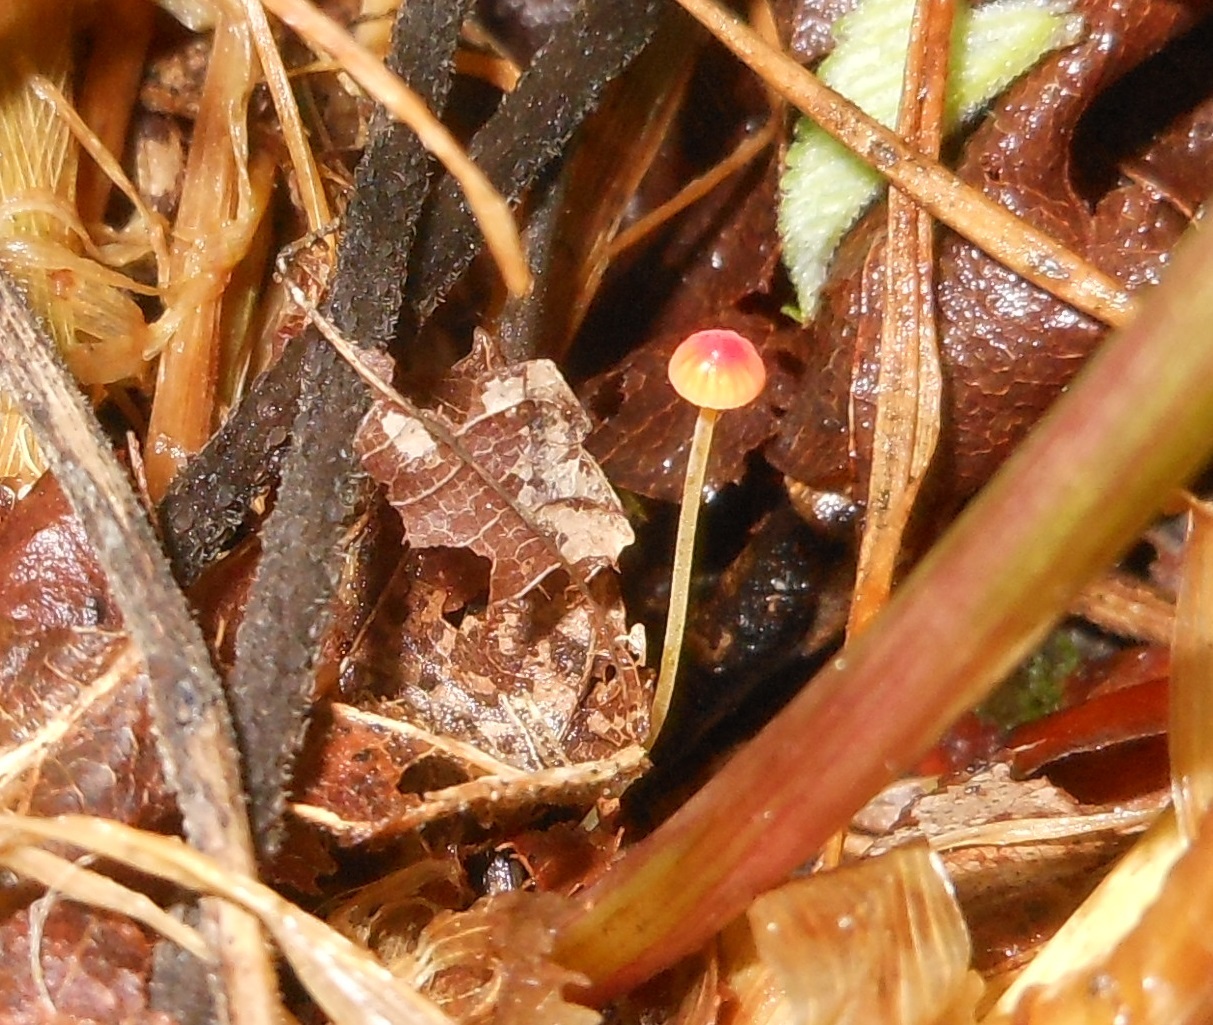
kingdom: Fungi
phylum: Basidiomycota
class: Agaricomycetes
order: Agaricales
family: Mycenaceae
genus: Mycena
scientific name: Mycena acicula
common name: Orange bonnet
